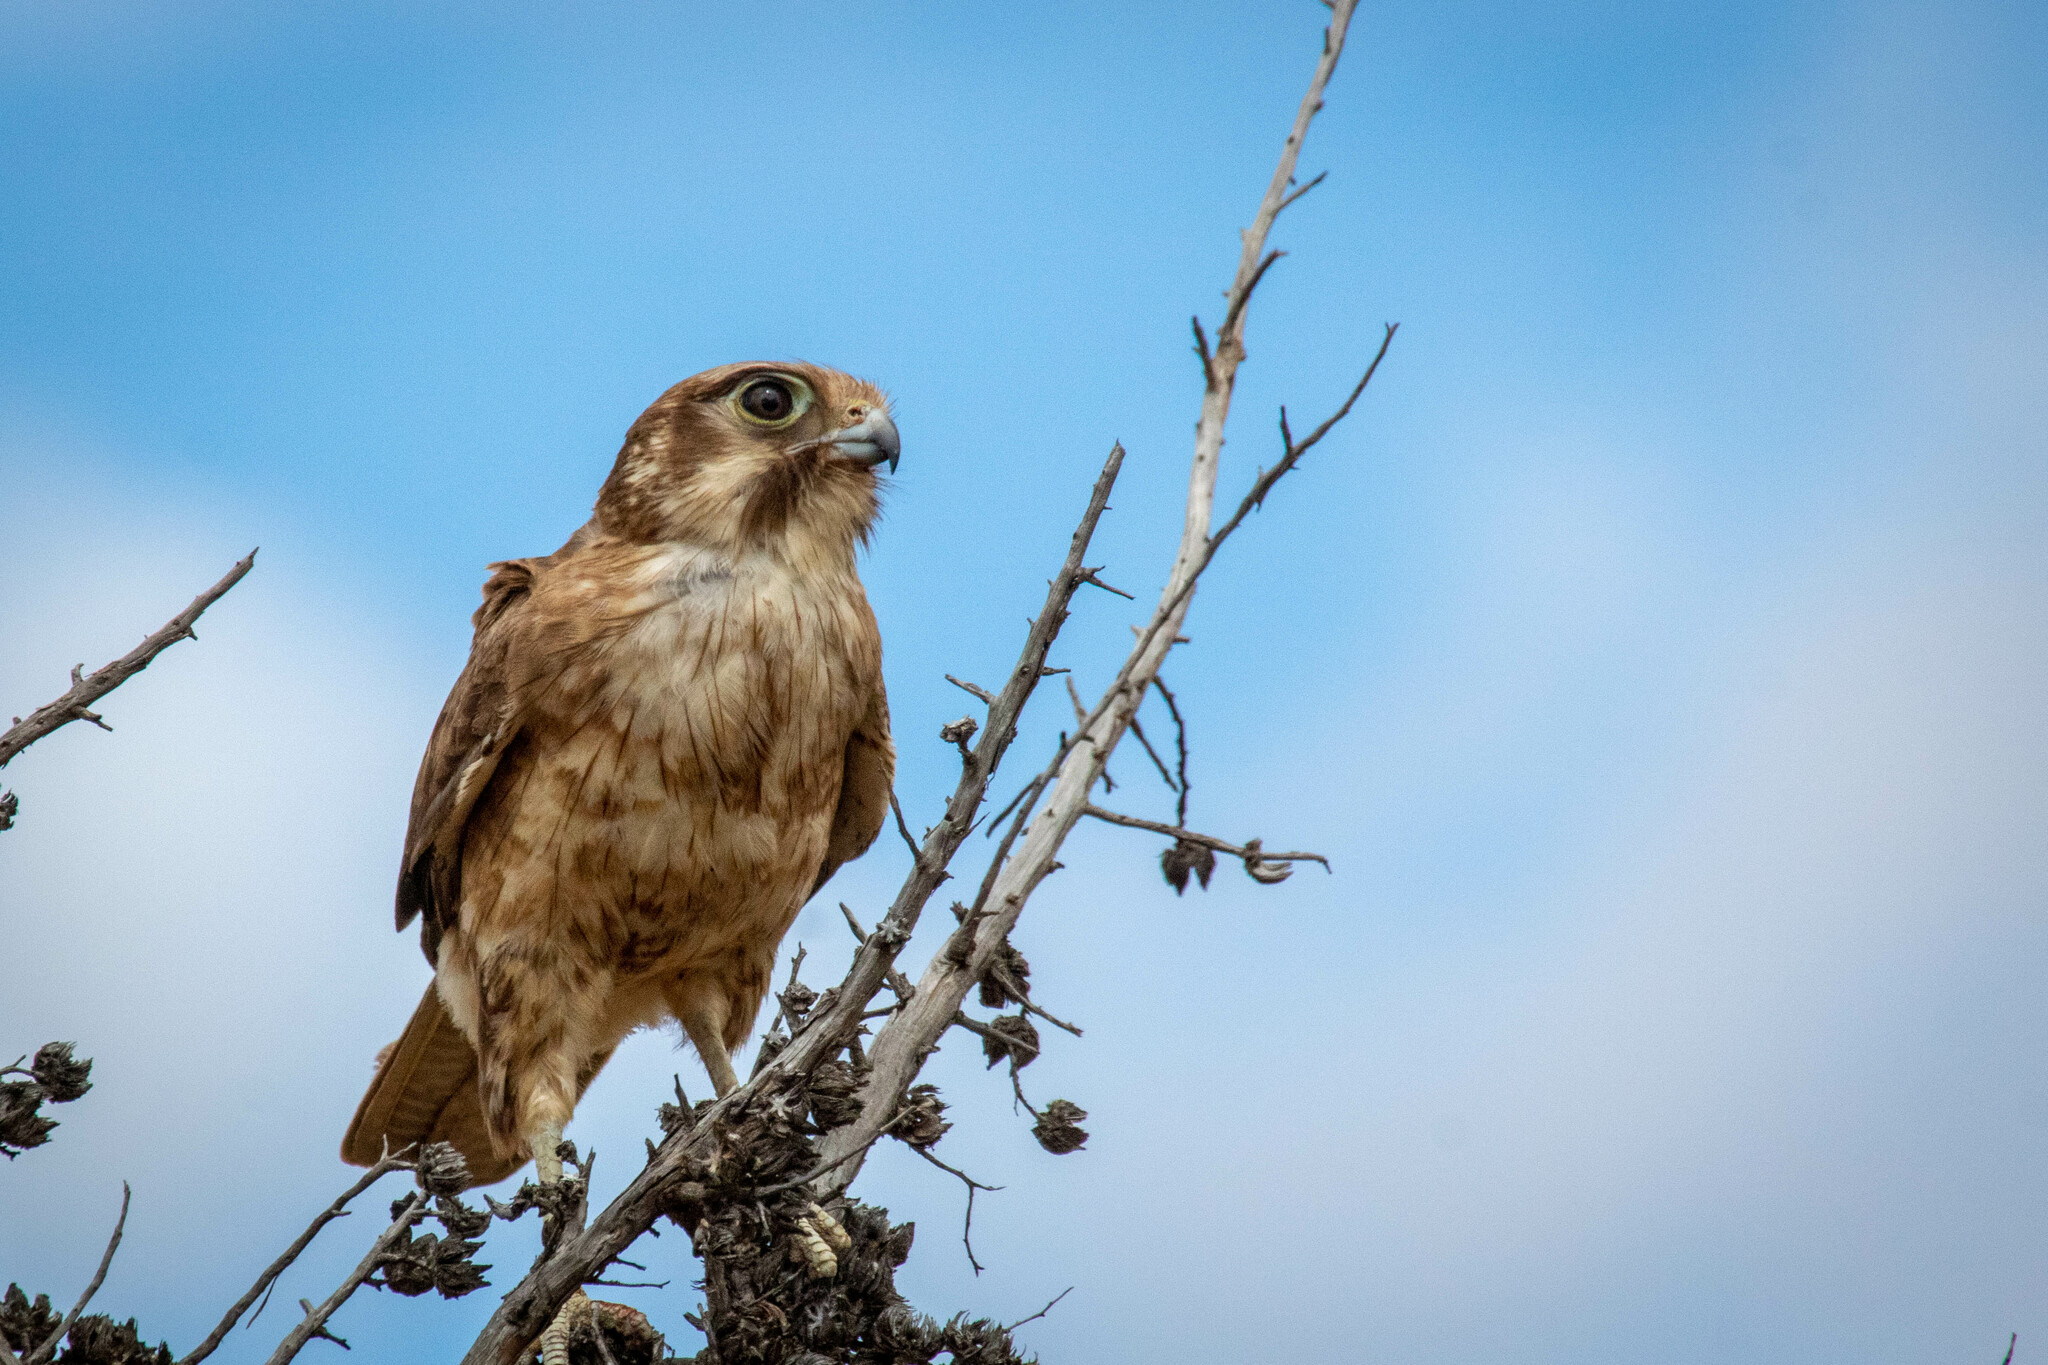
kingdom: Animalia
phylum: Chordata
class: Aves
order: Falconiformes
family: Falconidae
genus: Falco
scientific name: Falco berigora
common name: Brown falcon
